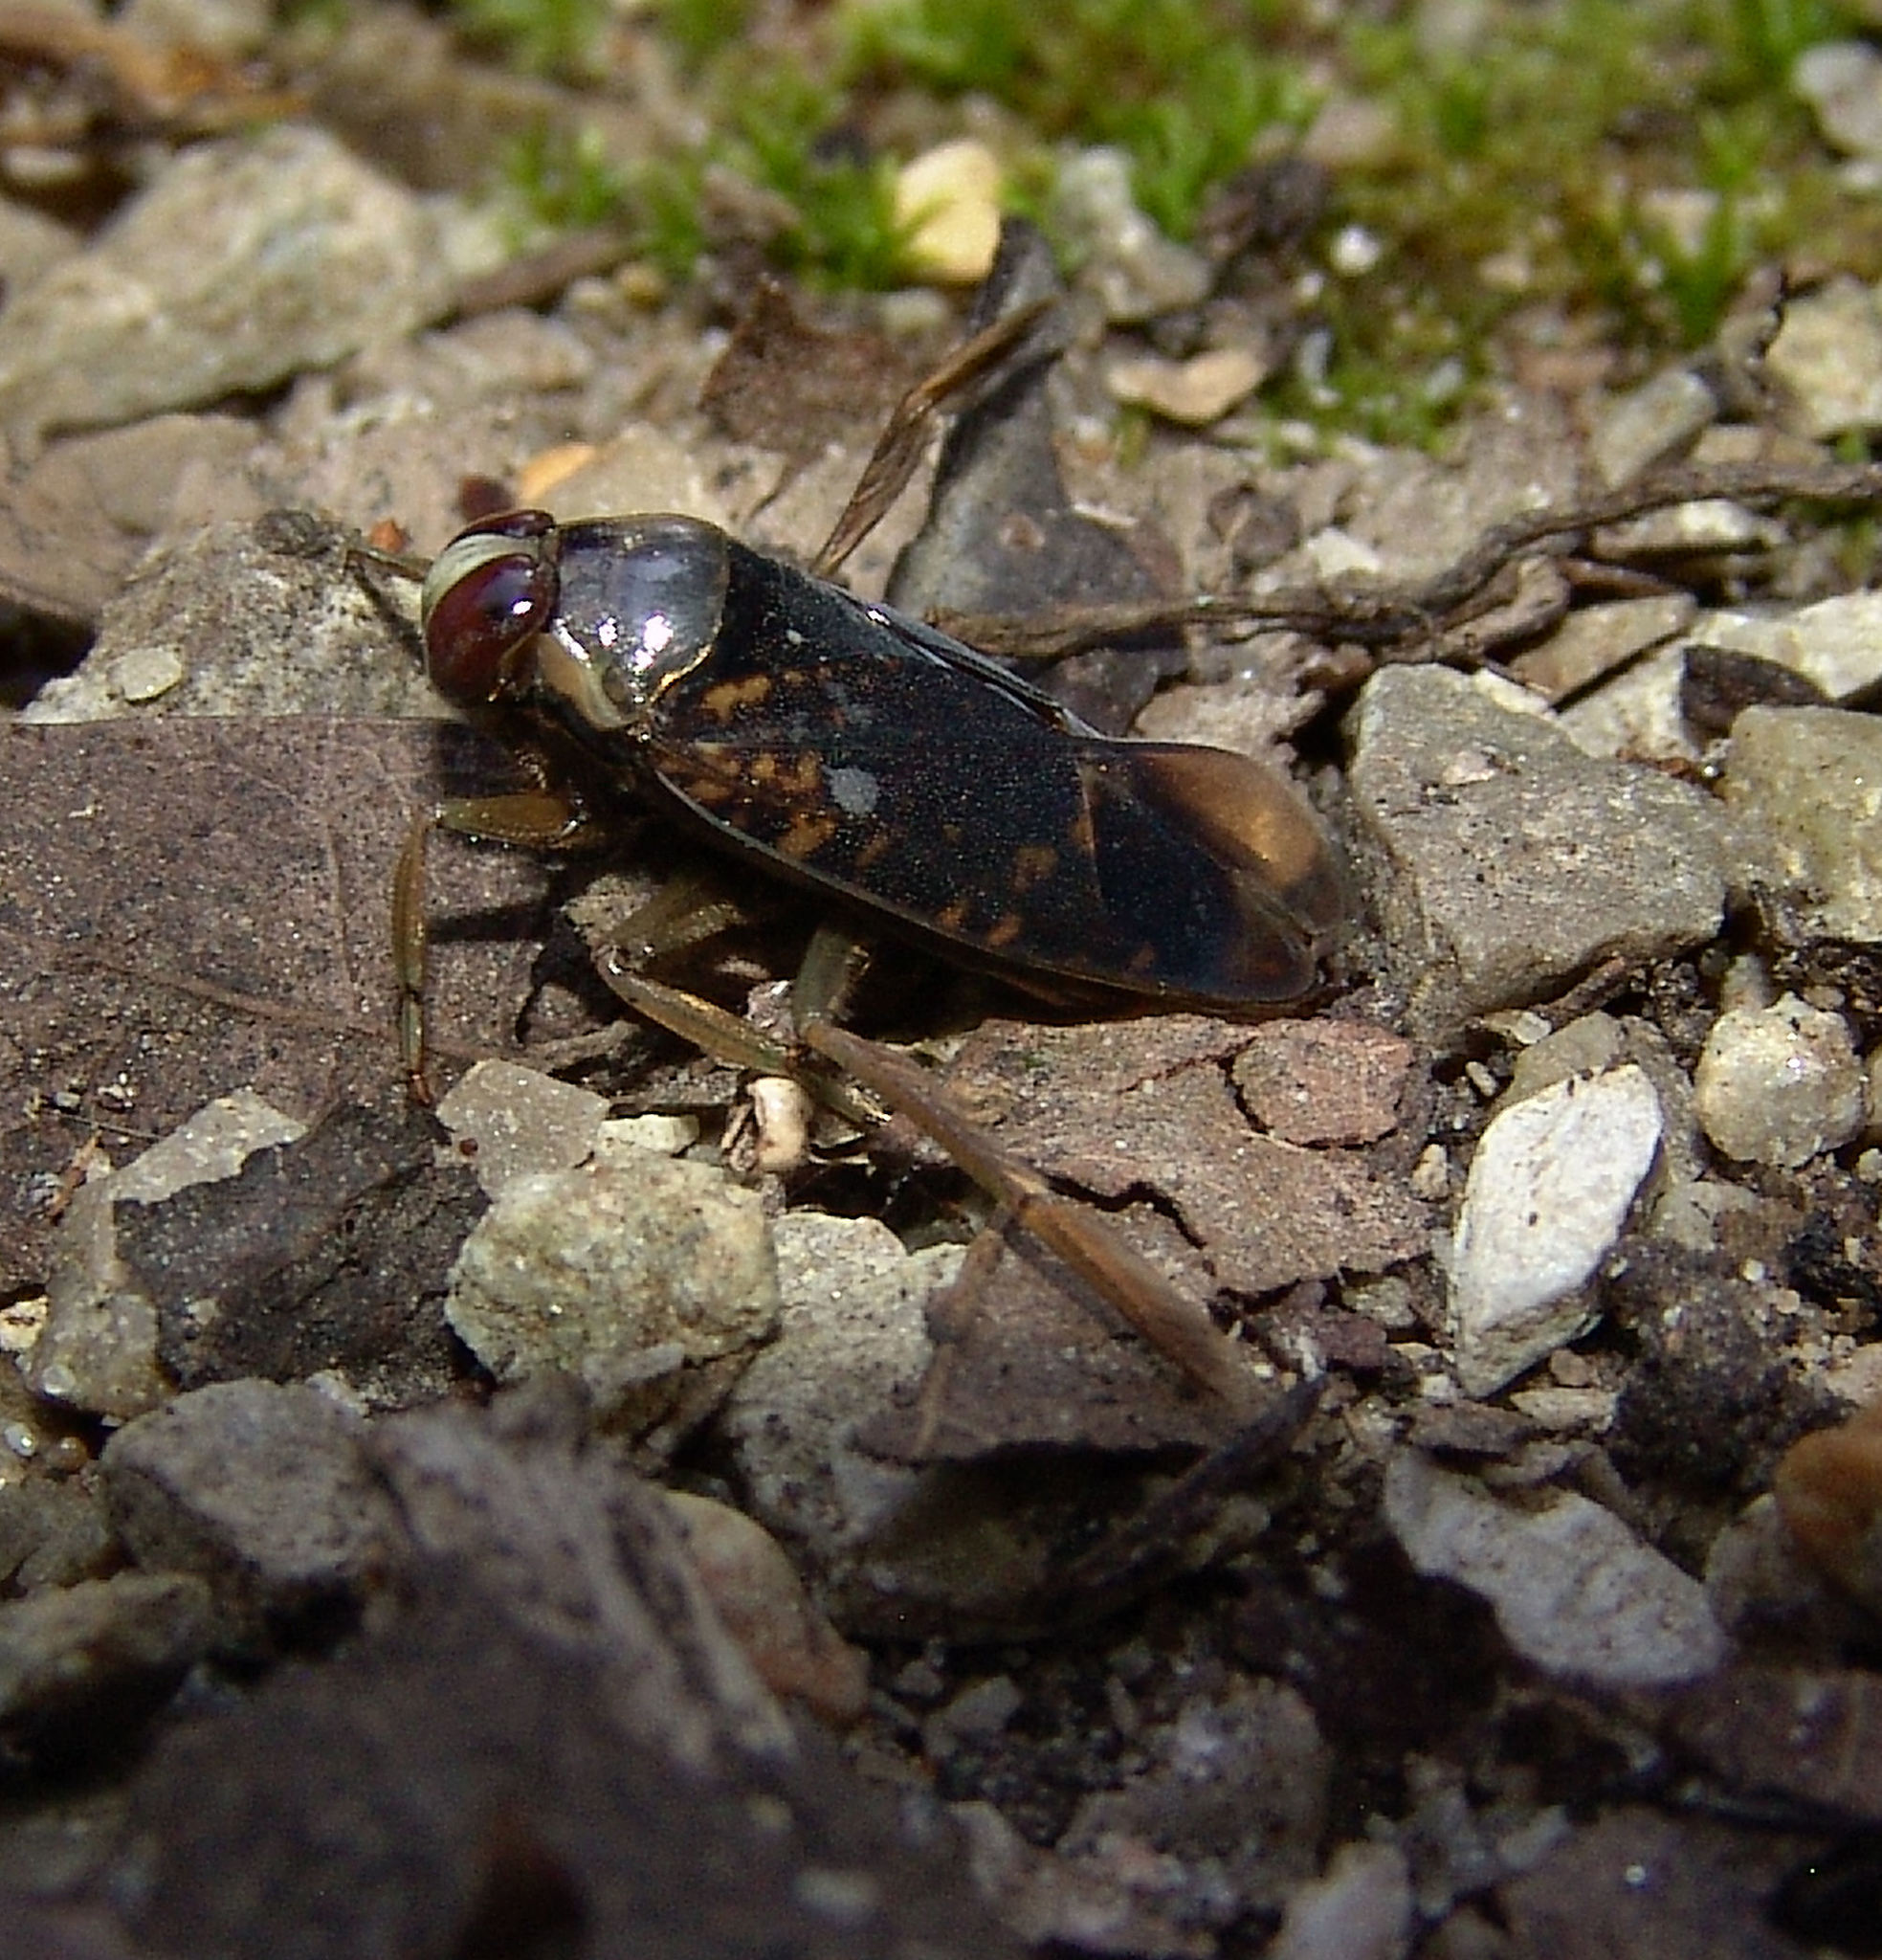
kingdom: Animalia
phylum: Arthropoda
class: Insecta
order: Hemiptera
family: Notonectidae
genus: Notonecta
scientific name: Notonecta irrorata
